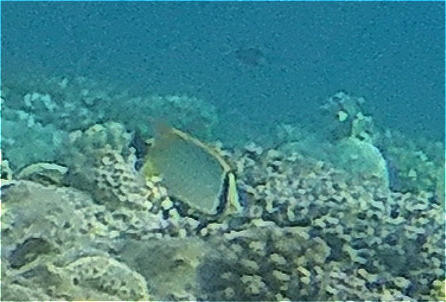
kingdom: Animalia
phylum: Chordata
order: Perciformes
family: Chaetodontidae
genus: Chaetodon
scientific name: Chaetodon trifascialis
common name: Chevroned butterflyfish
